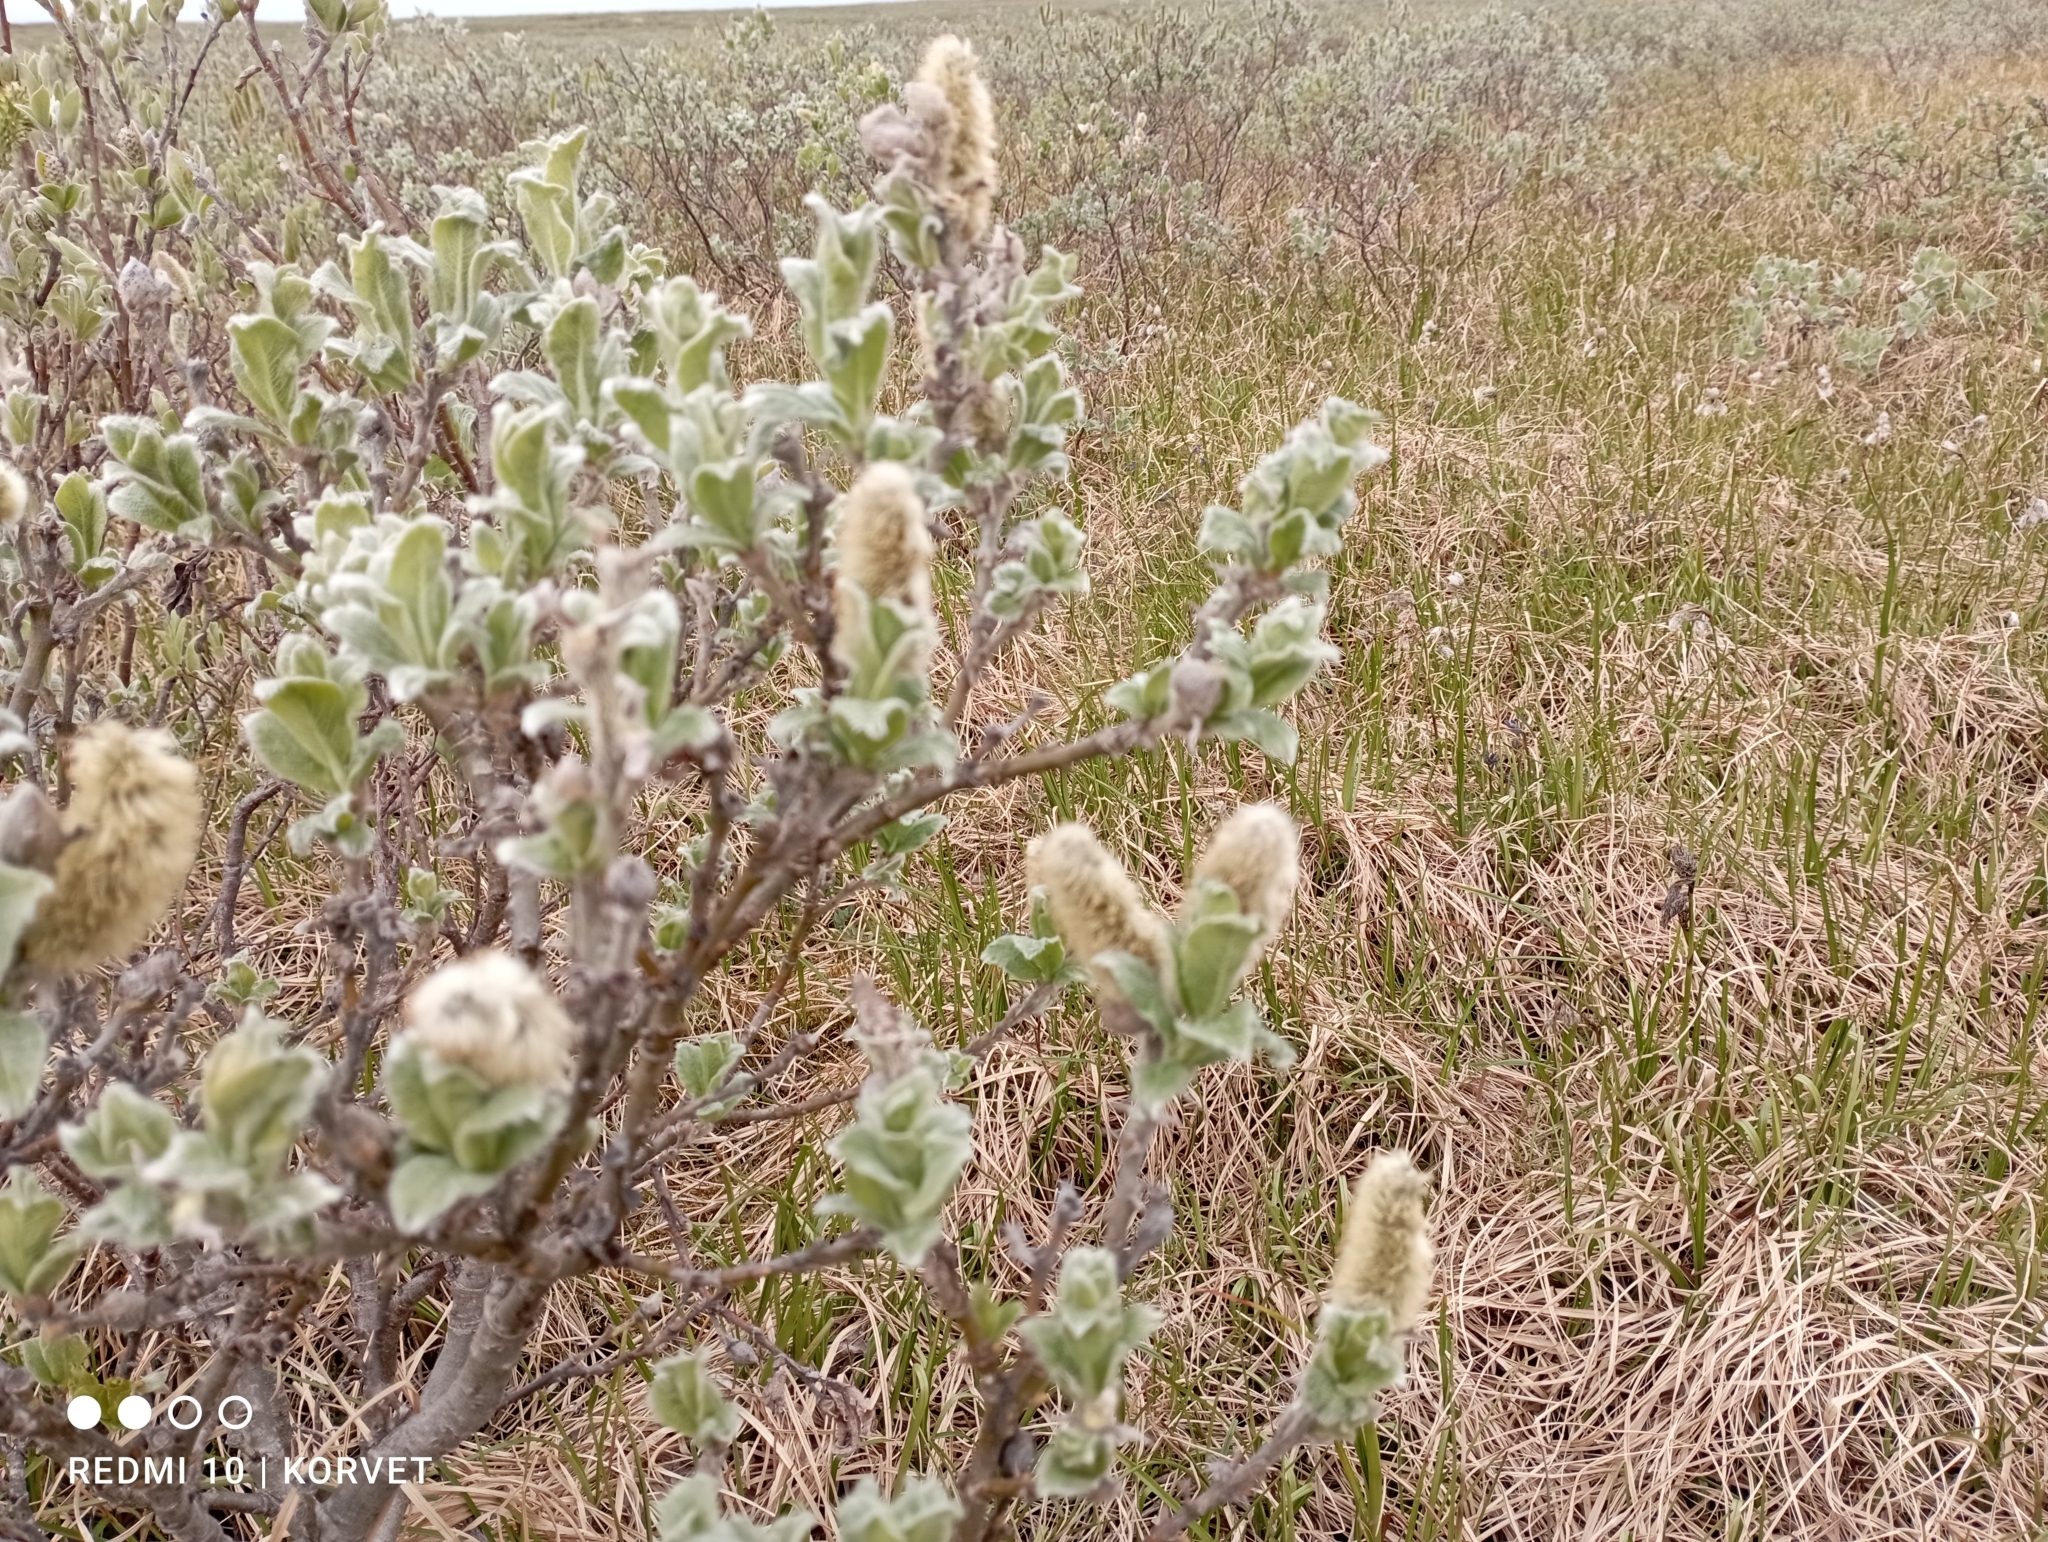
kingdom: Plantae
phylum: Tracheophyta
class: Magnoliopsida
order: Malpighiales
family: Salicaceae
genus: Salix
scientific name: Salix lanata
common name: Woolly willow
